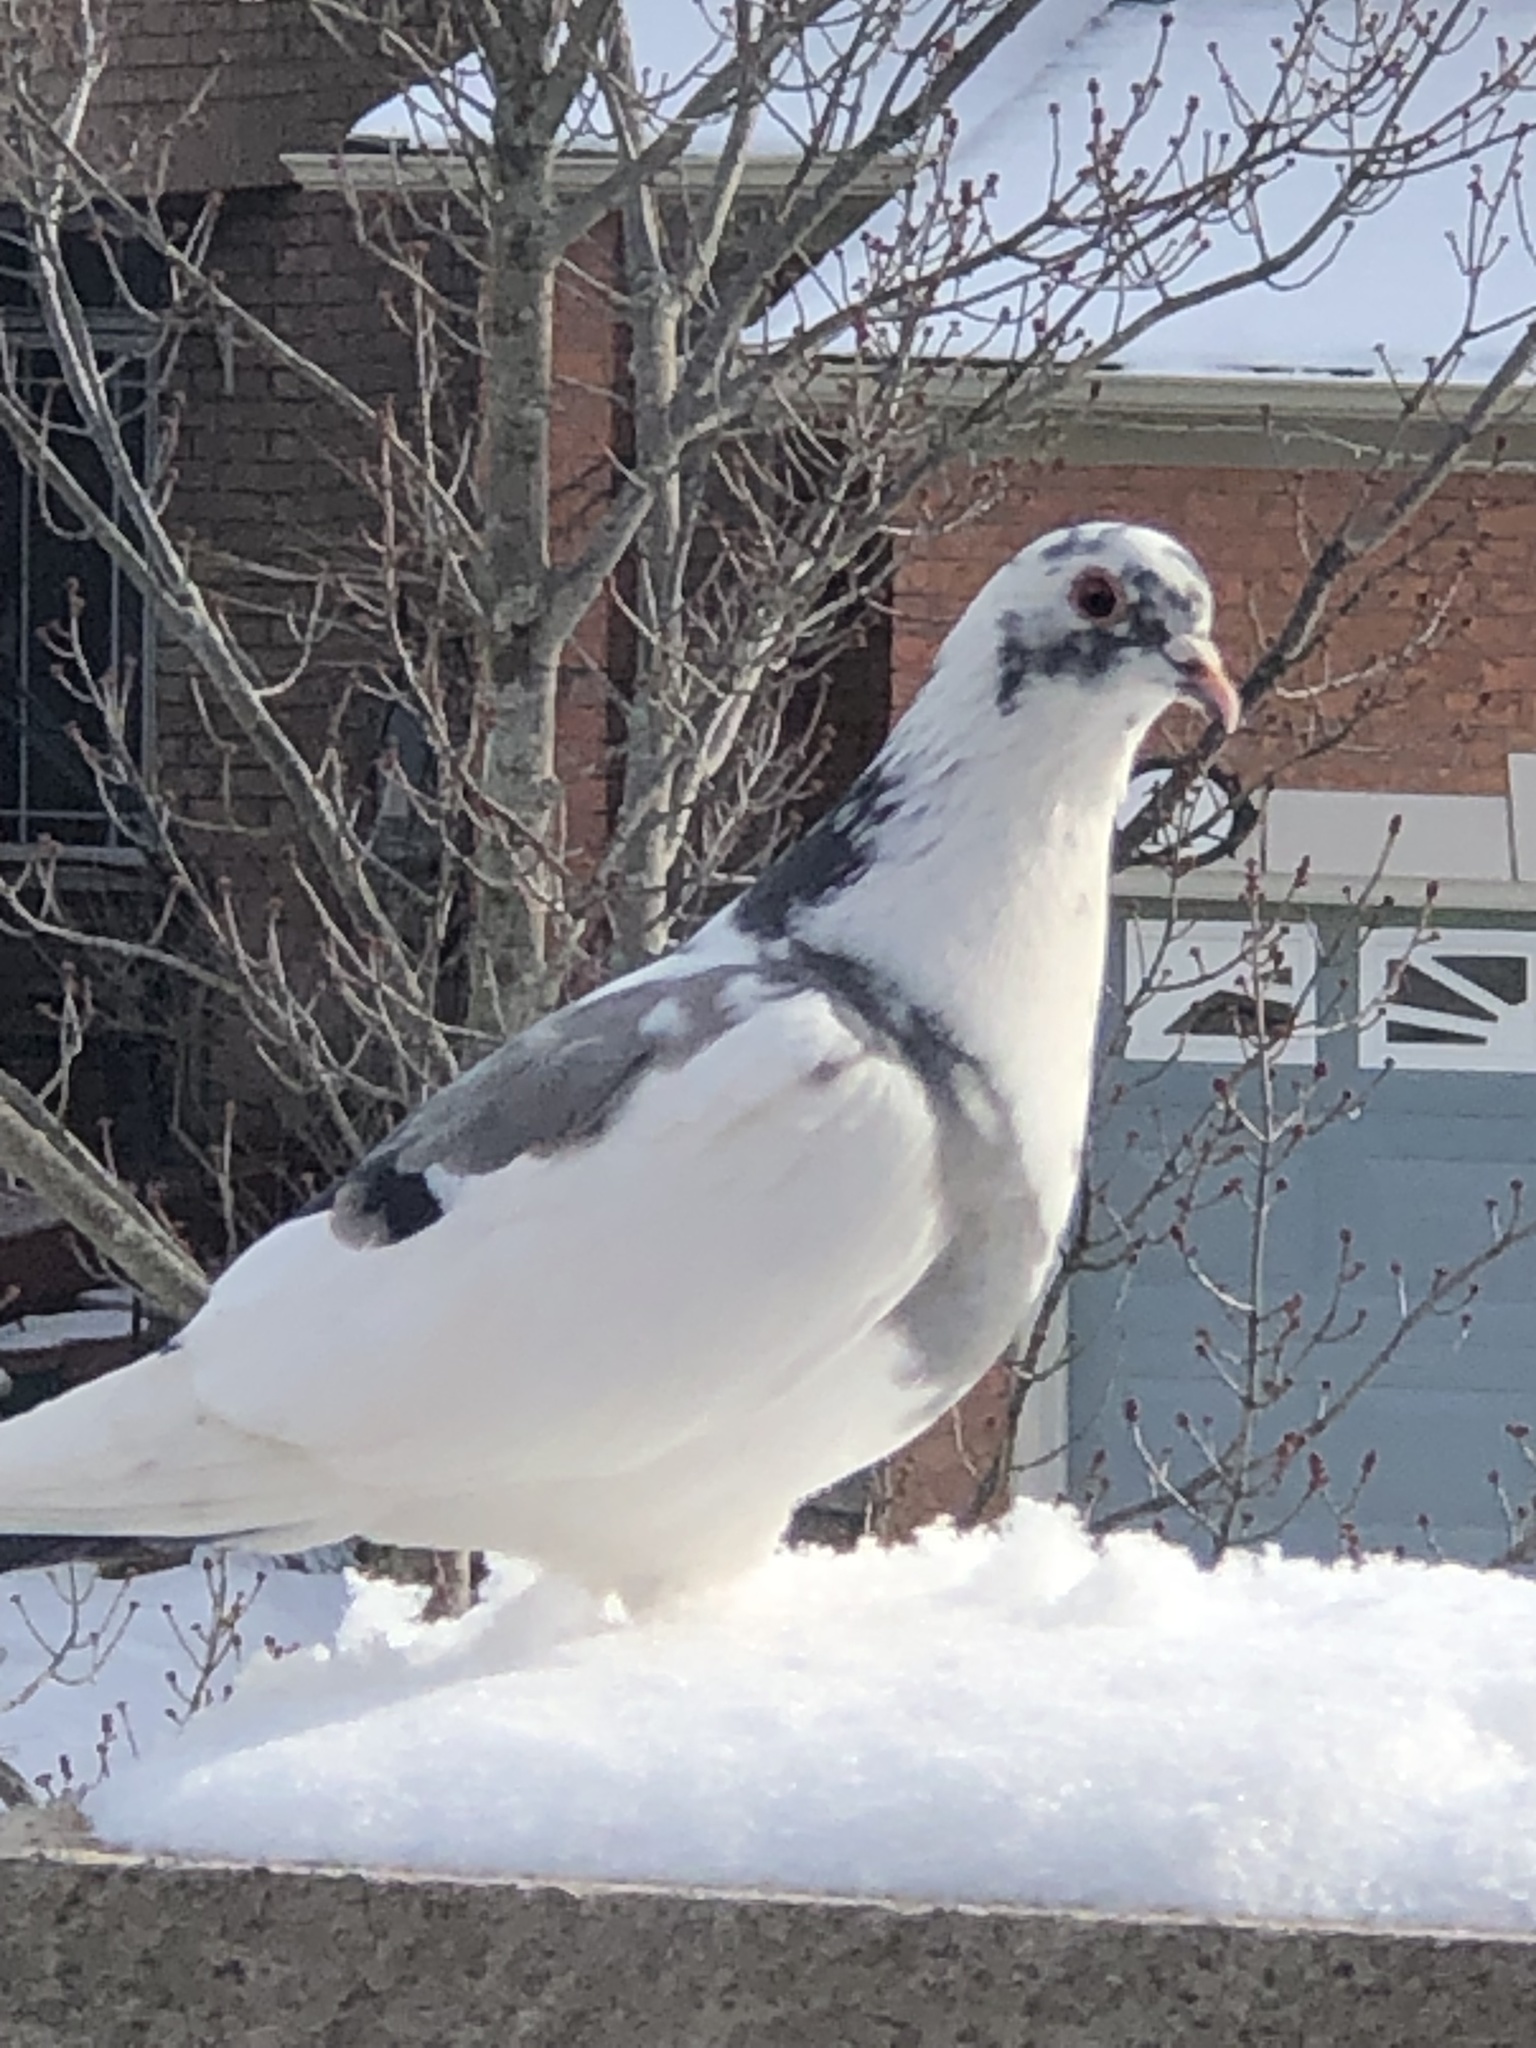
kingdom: Animalia
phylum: Chordata
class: Aves
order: Columbiformes
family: Columbidae
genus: Columba
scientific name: Columba livia
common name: Rock pigeon
